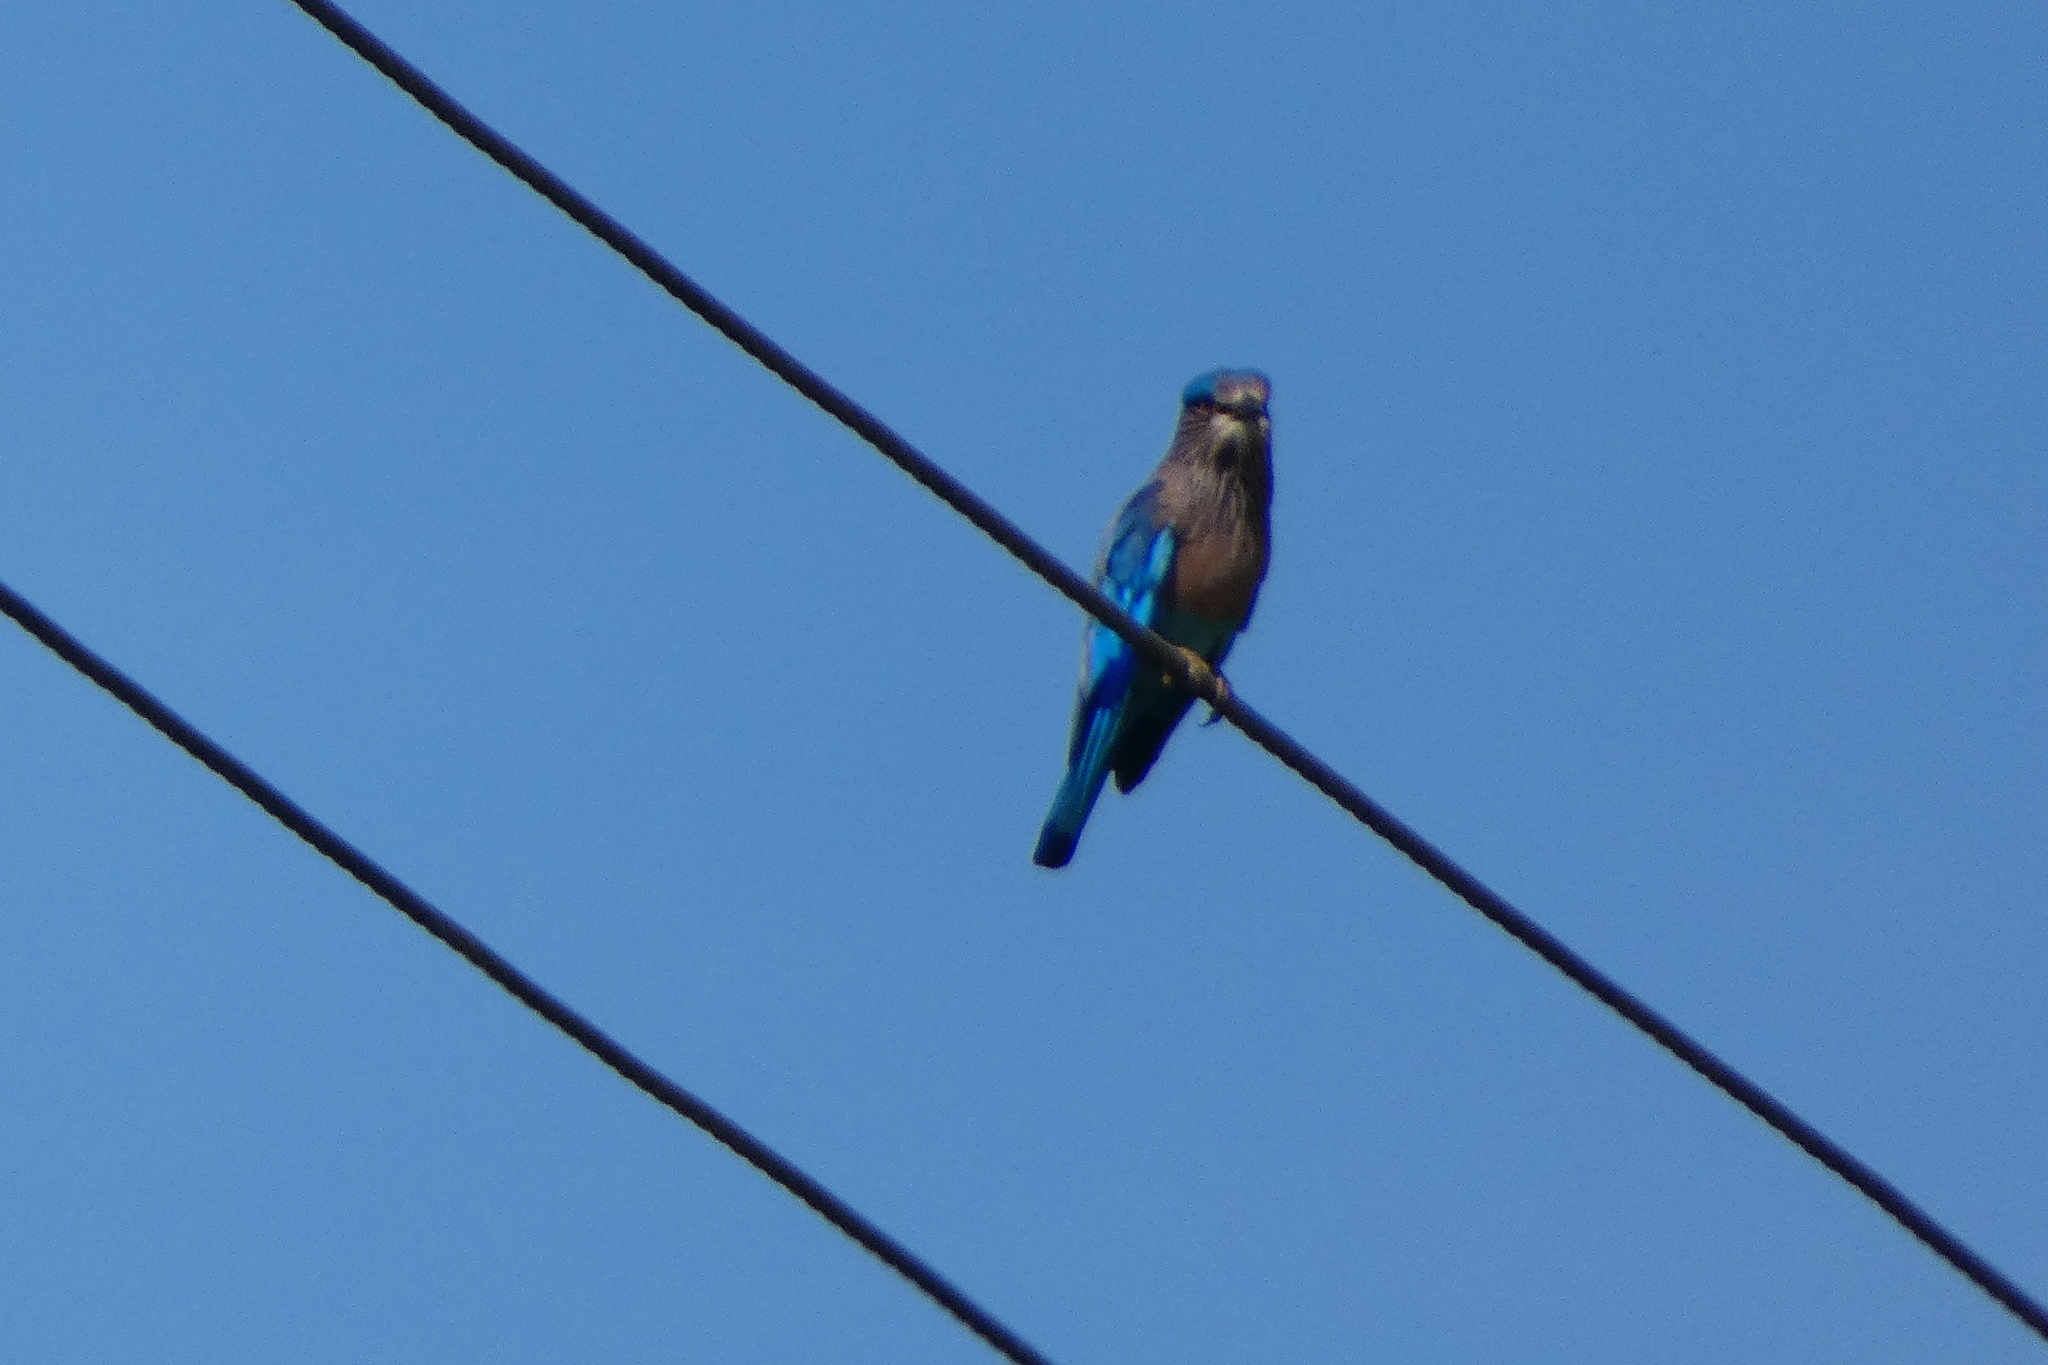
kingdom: Animalia
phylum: Chordata
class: Aves
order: Coraciiformes
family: Coraciidae
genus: Coracias
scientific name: Coracias benghalensis
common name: Indian roller
